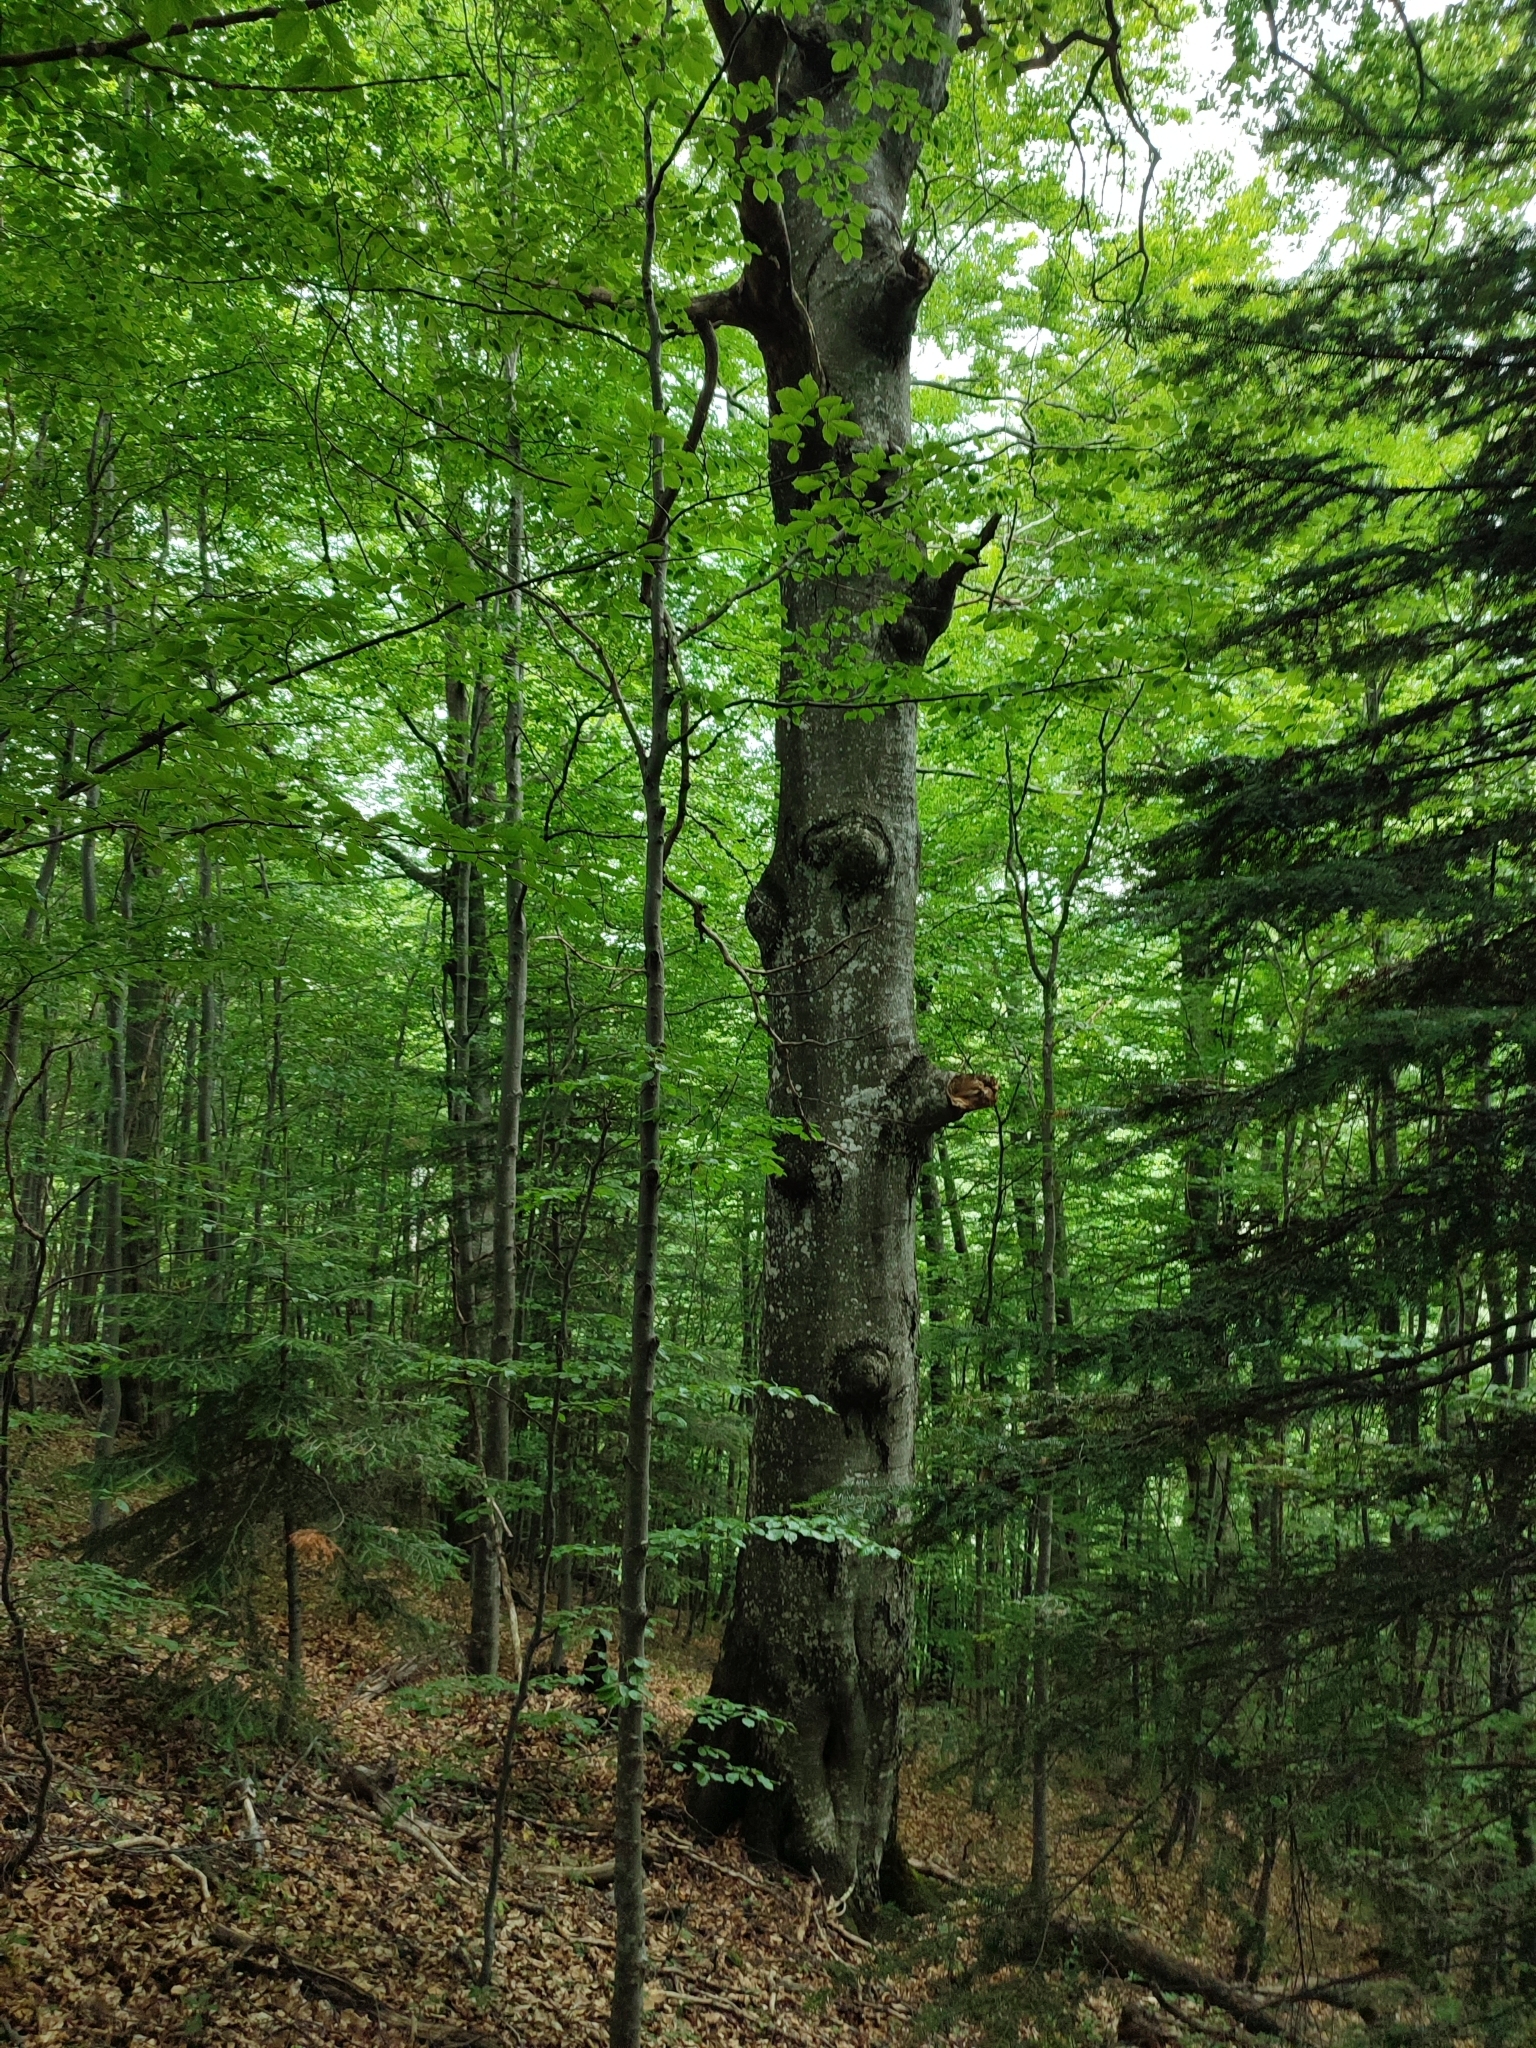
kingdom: Plantae
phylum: Tracheophyta
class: Magnoliopsida
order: Fagales
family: Fagaceae
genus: Fagus
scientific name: Fagus sylvatica
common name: Beech
